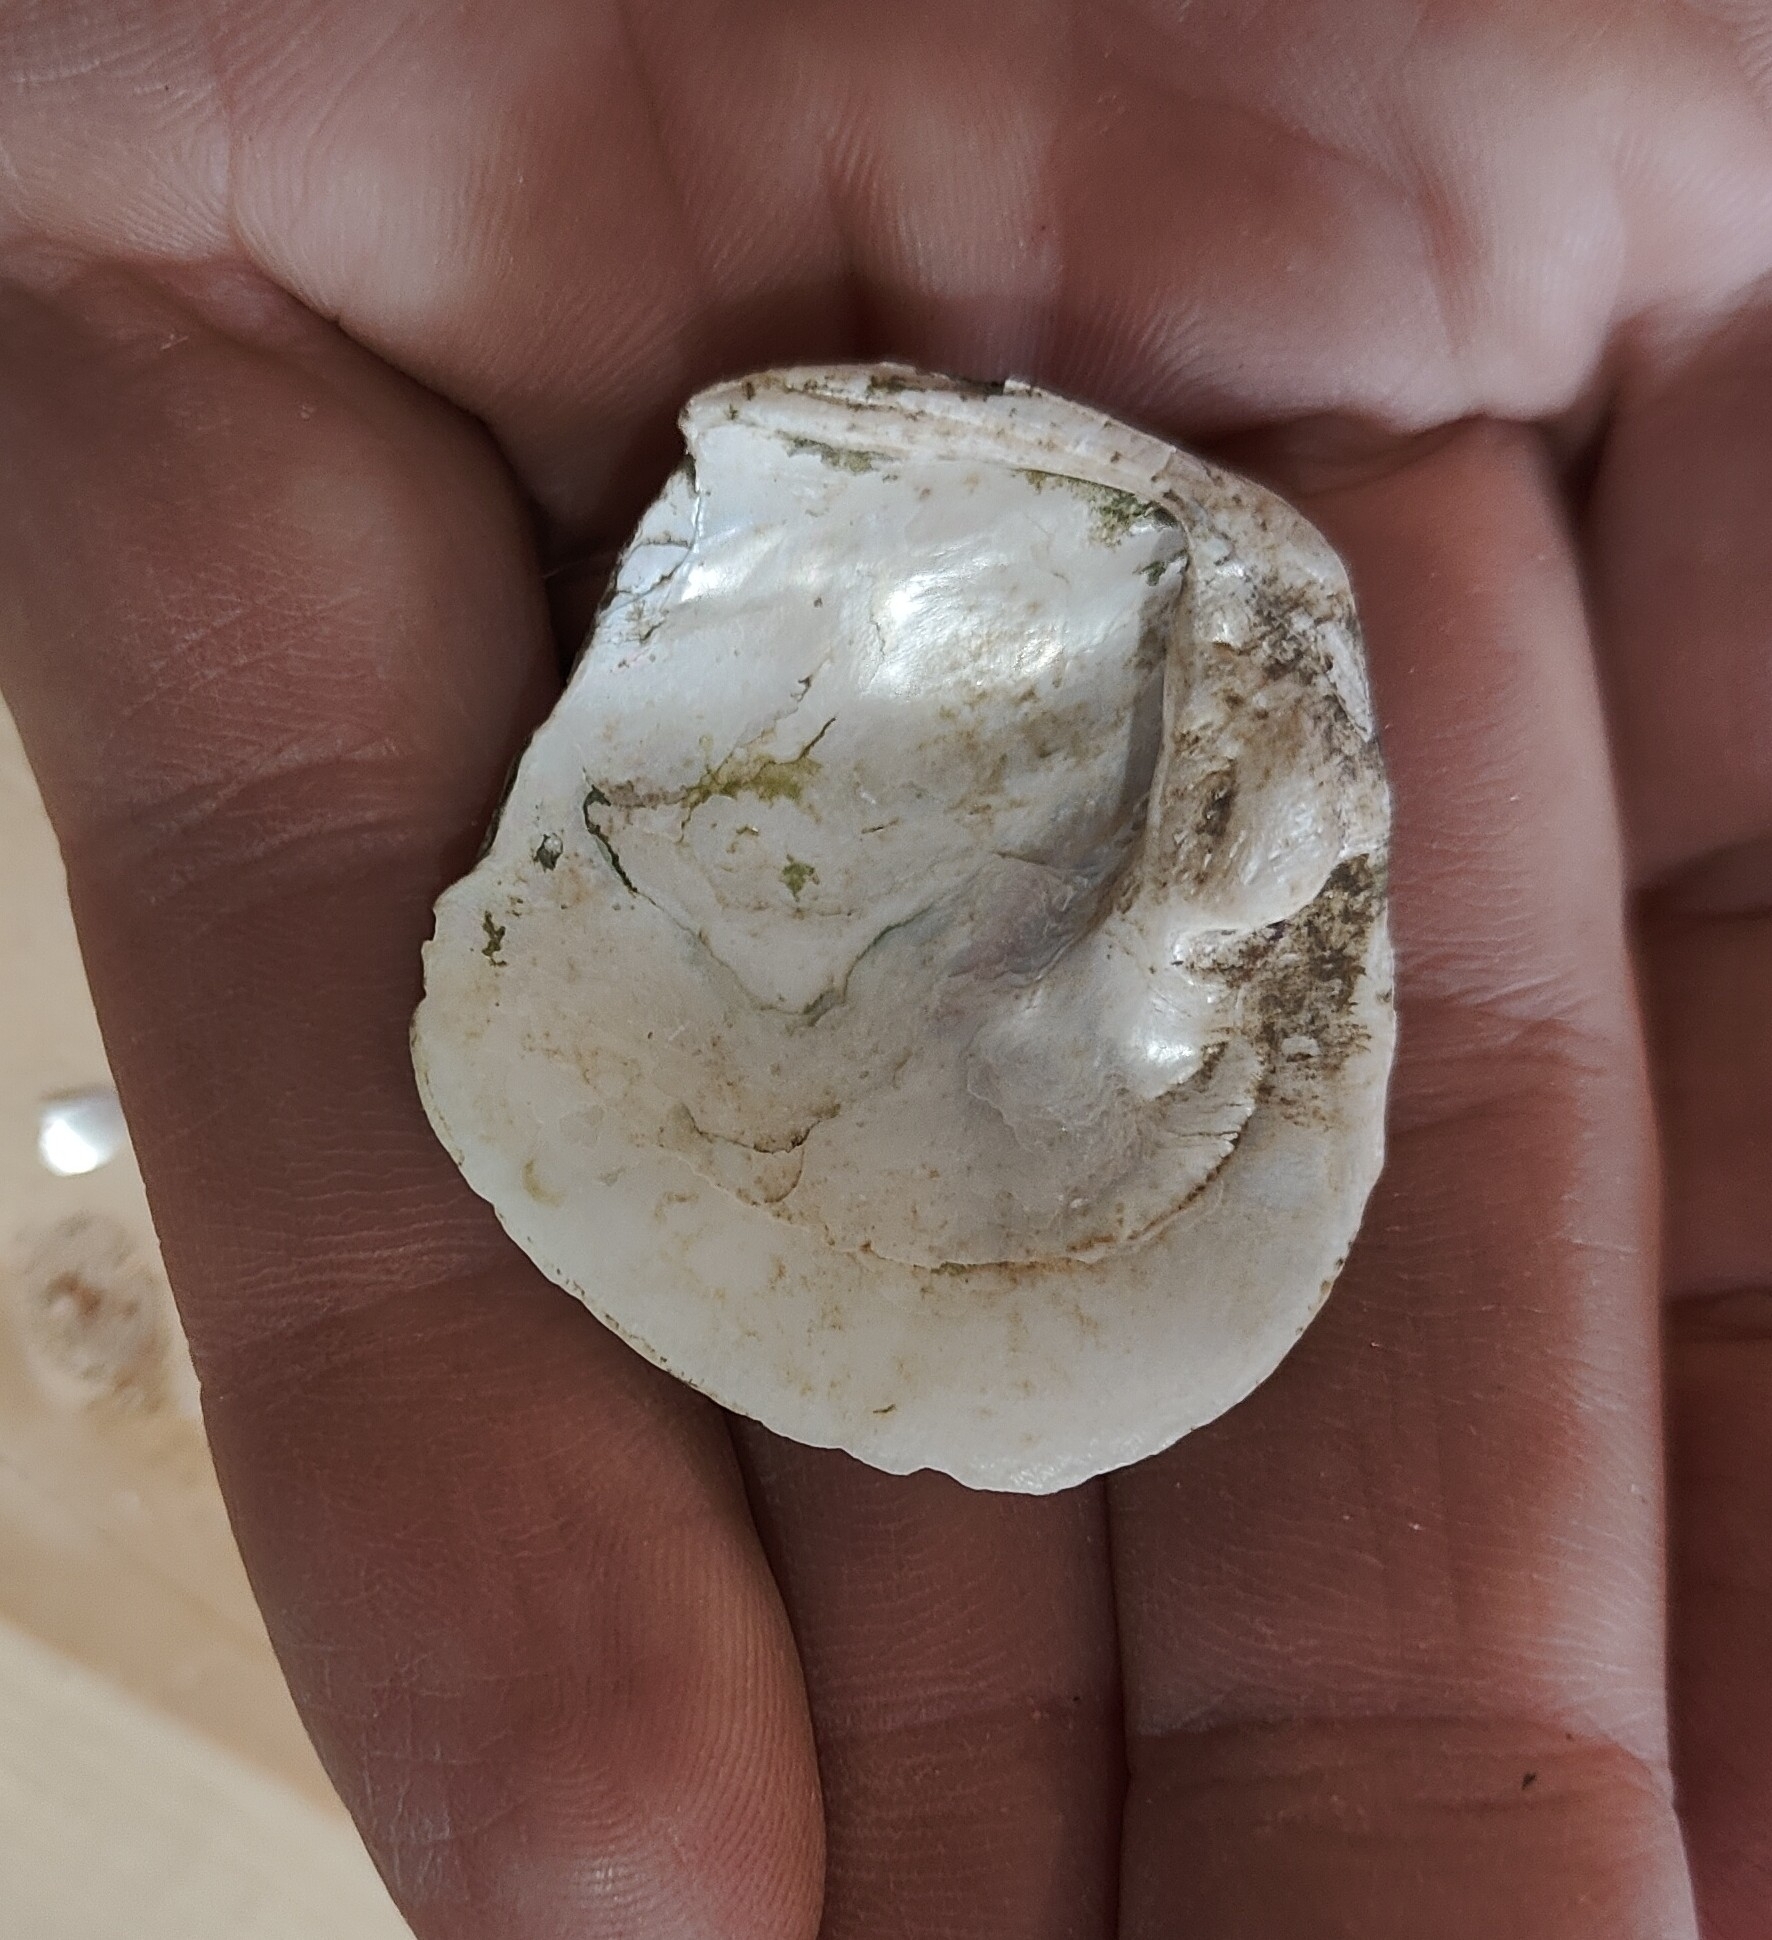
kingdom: Animalia
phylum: Mollusca
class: Bivalvia
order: Unionida
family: Unionidae
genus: Cyclonaias
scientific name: Cyclonaias pustulosa
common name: Pimpleback
